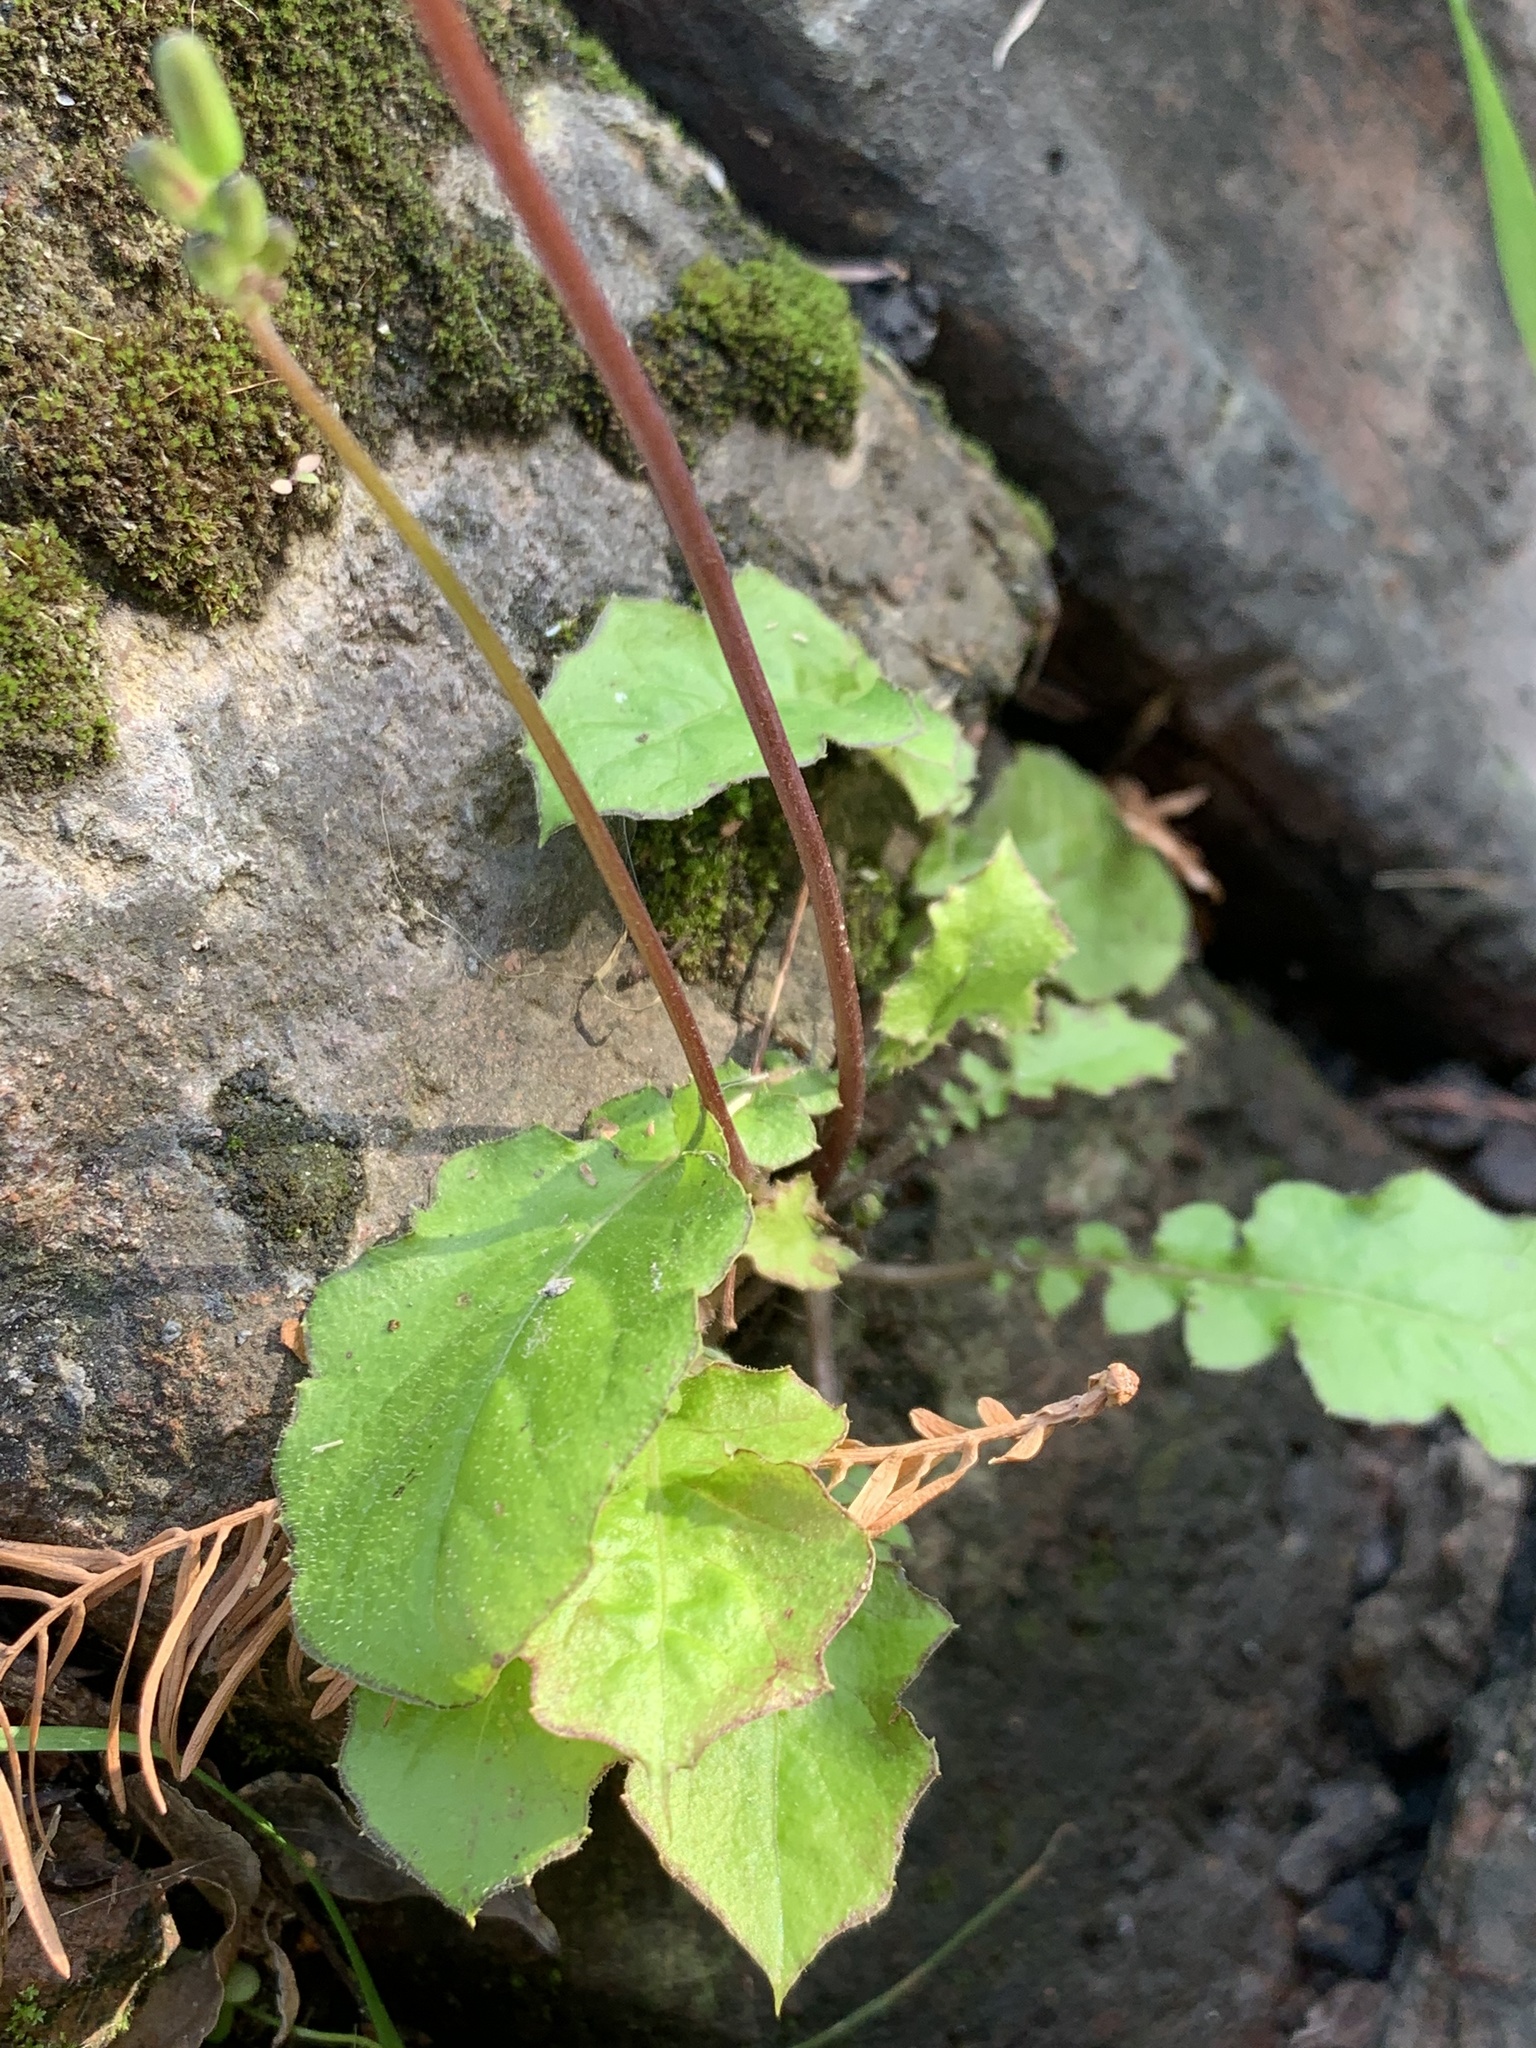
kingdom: Plantae
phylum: Tracheophyta
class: Magnoliopsida
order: Asterales
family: Asteraceae
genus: Youngia
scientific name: Youngia japonica
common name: Oriental false hawksbeard
